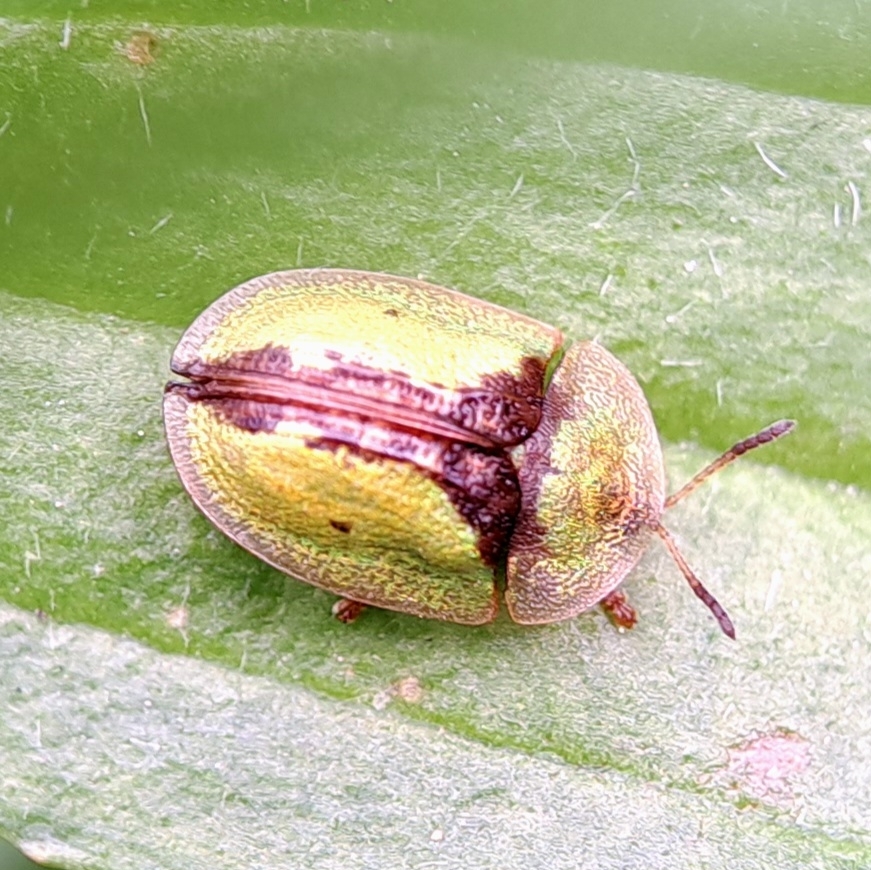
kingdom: Animalia
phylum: Arthropoda
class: Insecta
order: Coleoptera
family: Chrysomelidae
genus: Cassida
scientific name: Cassida vibex
